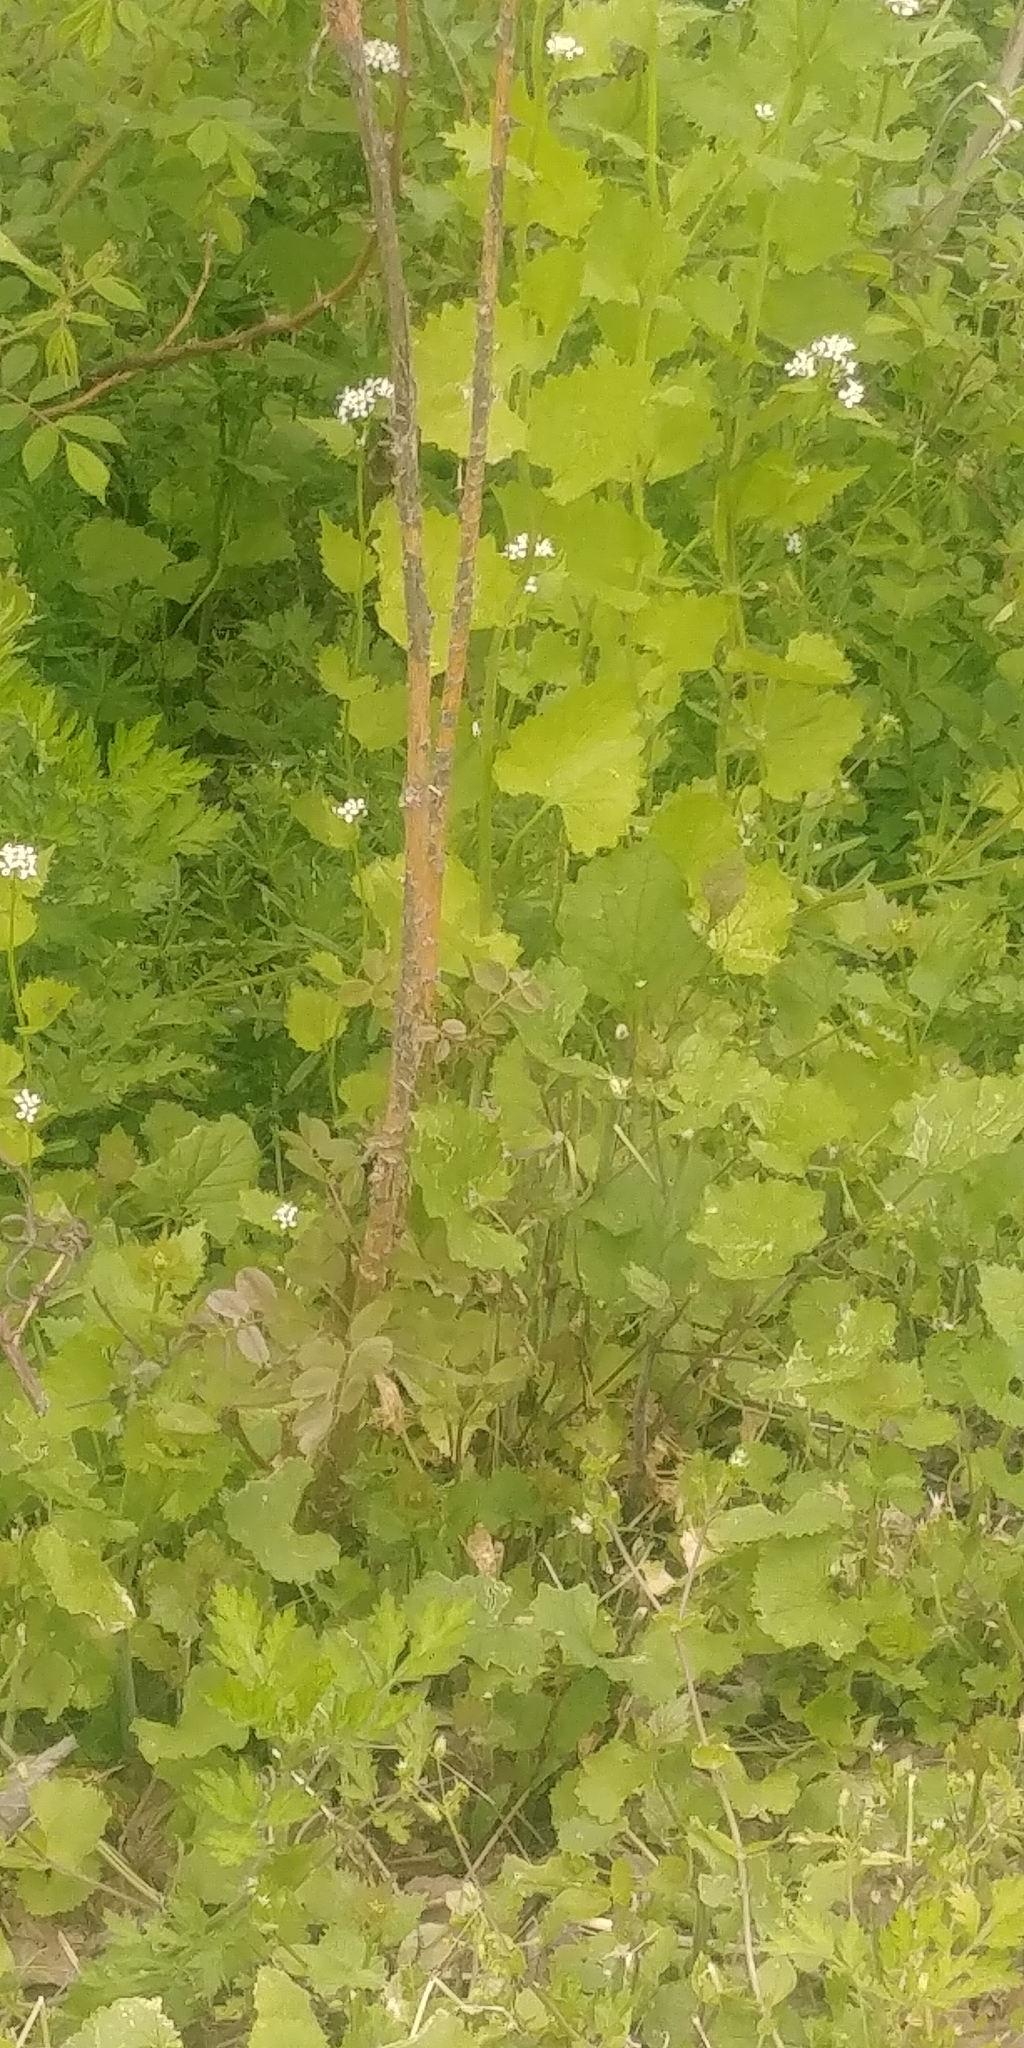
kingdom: Plantae
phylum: Tracheophyta
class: Magnoliopsida
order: Brassicales
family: Brassicaceae
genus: Alliaria
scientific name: Alliaria petiolata
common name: Garlic mustard
